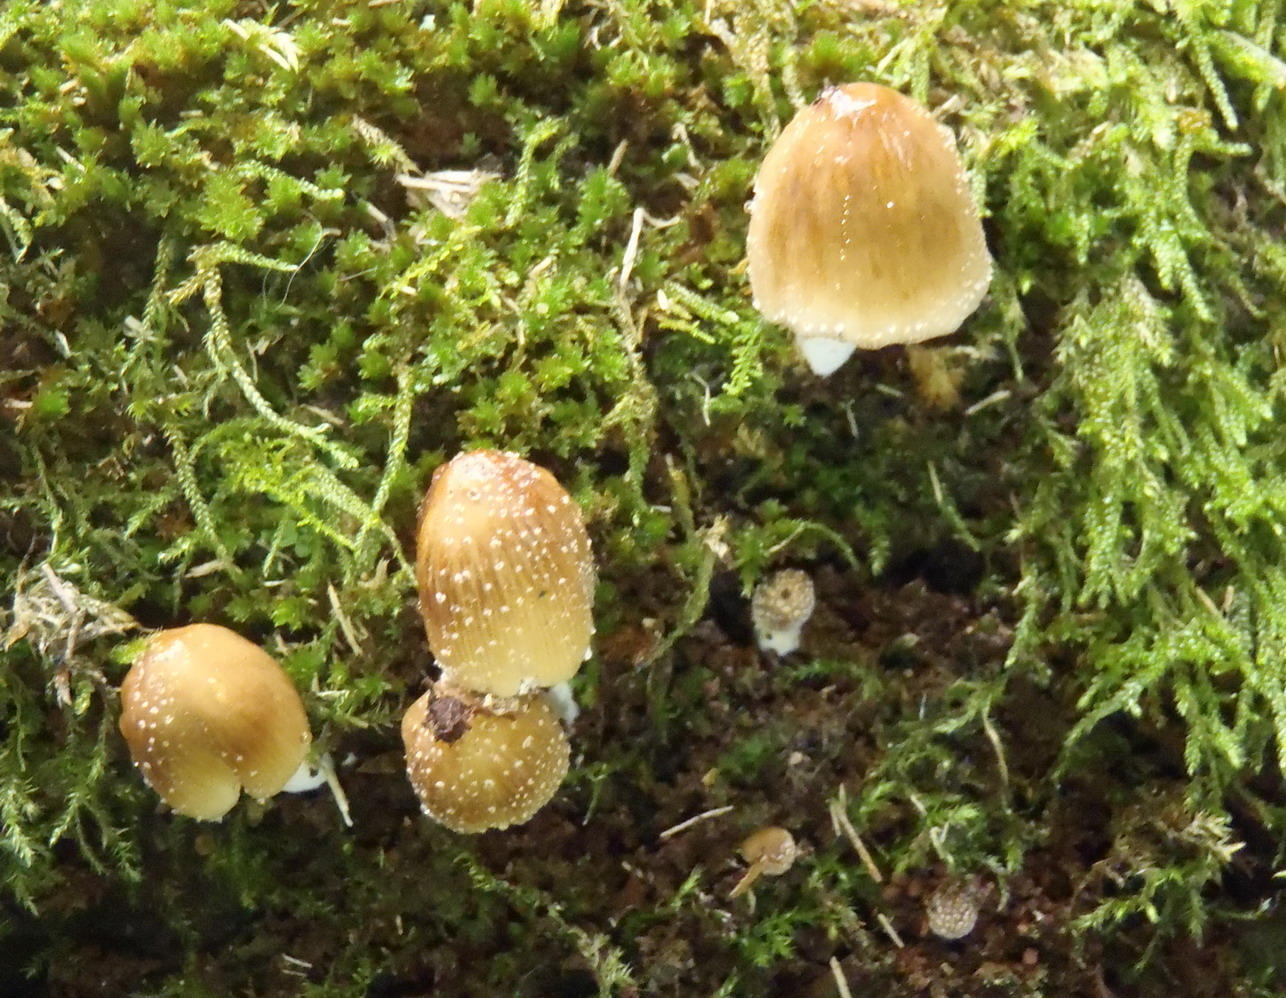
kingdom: Fungi
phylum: Basidiomycota
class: Agaricomycetes
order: Agaricales
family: Psathyrellaceae
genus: Coprinellus
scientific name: Coprinellus micaceus
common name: Glistening ink-cap
